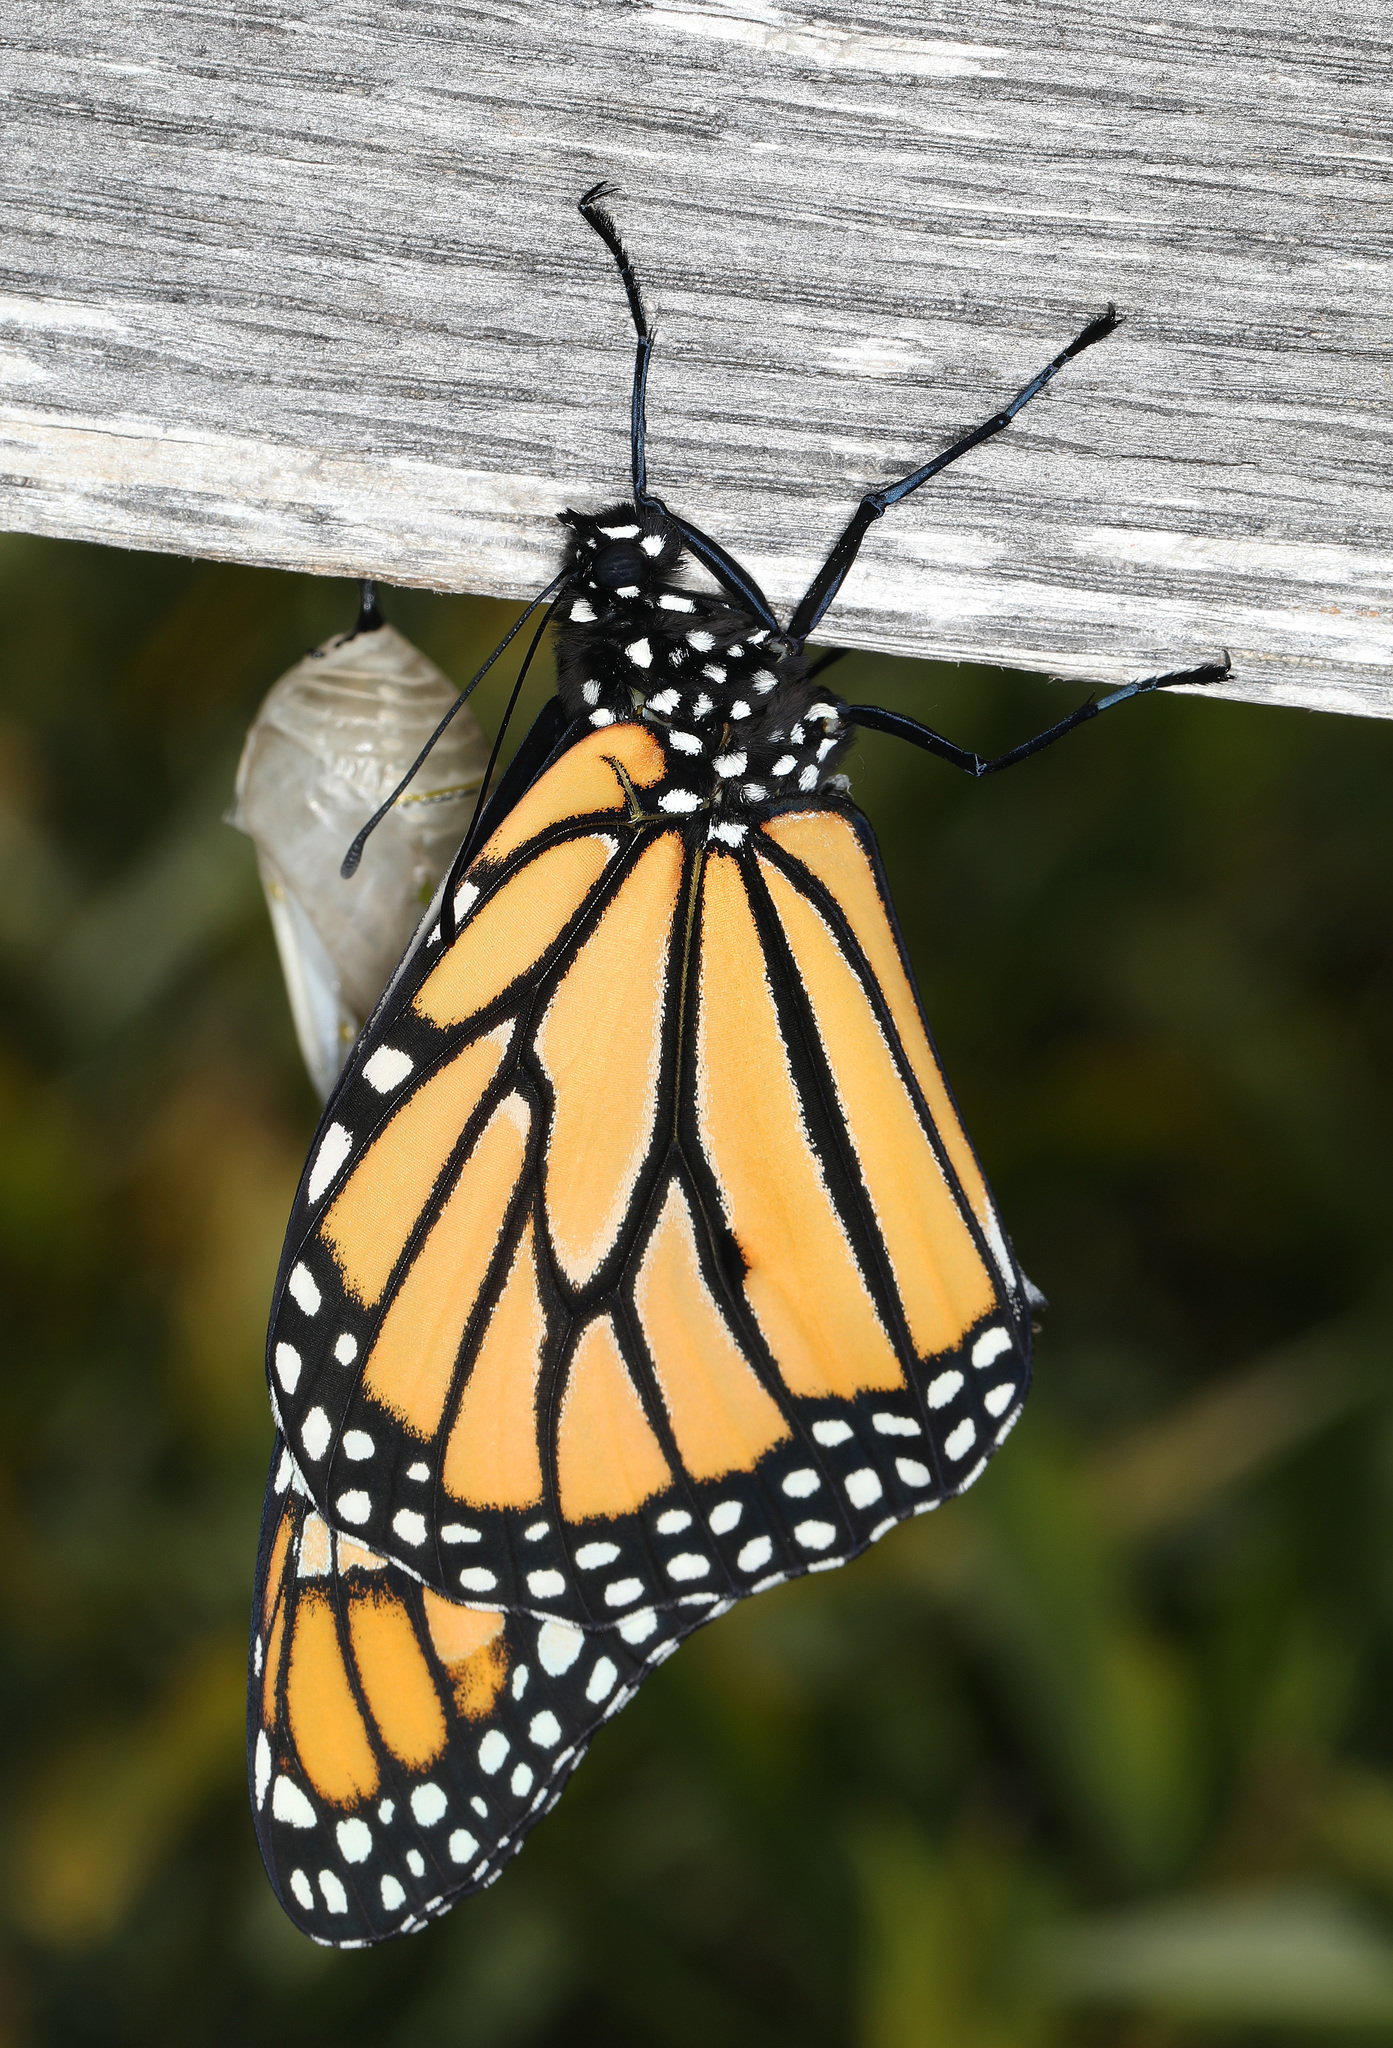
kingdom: Animalia
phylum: Arthropoda
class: Insecta
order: Lepidoptera
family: Nymphalidae
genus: Danaus
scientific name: Danaus plexippus
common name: Monarch
